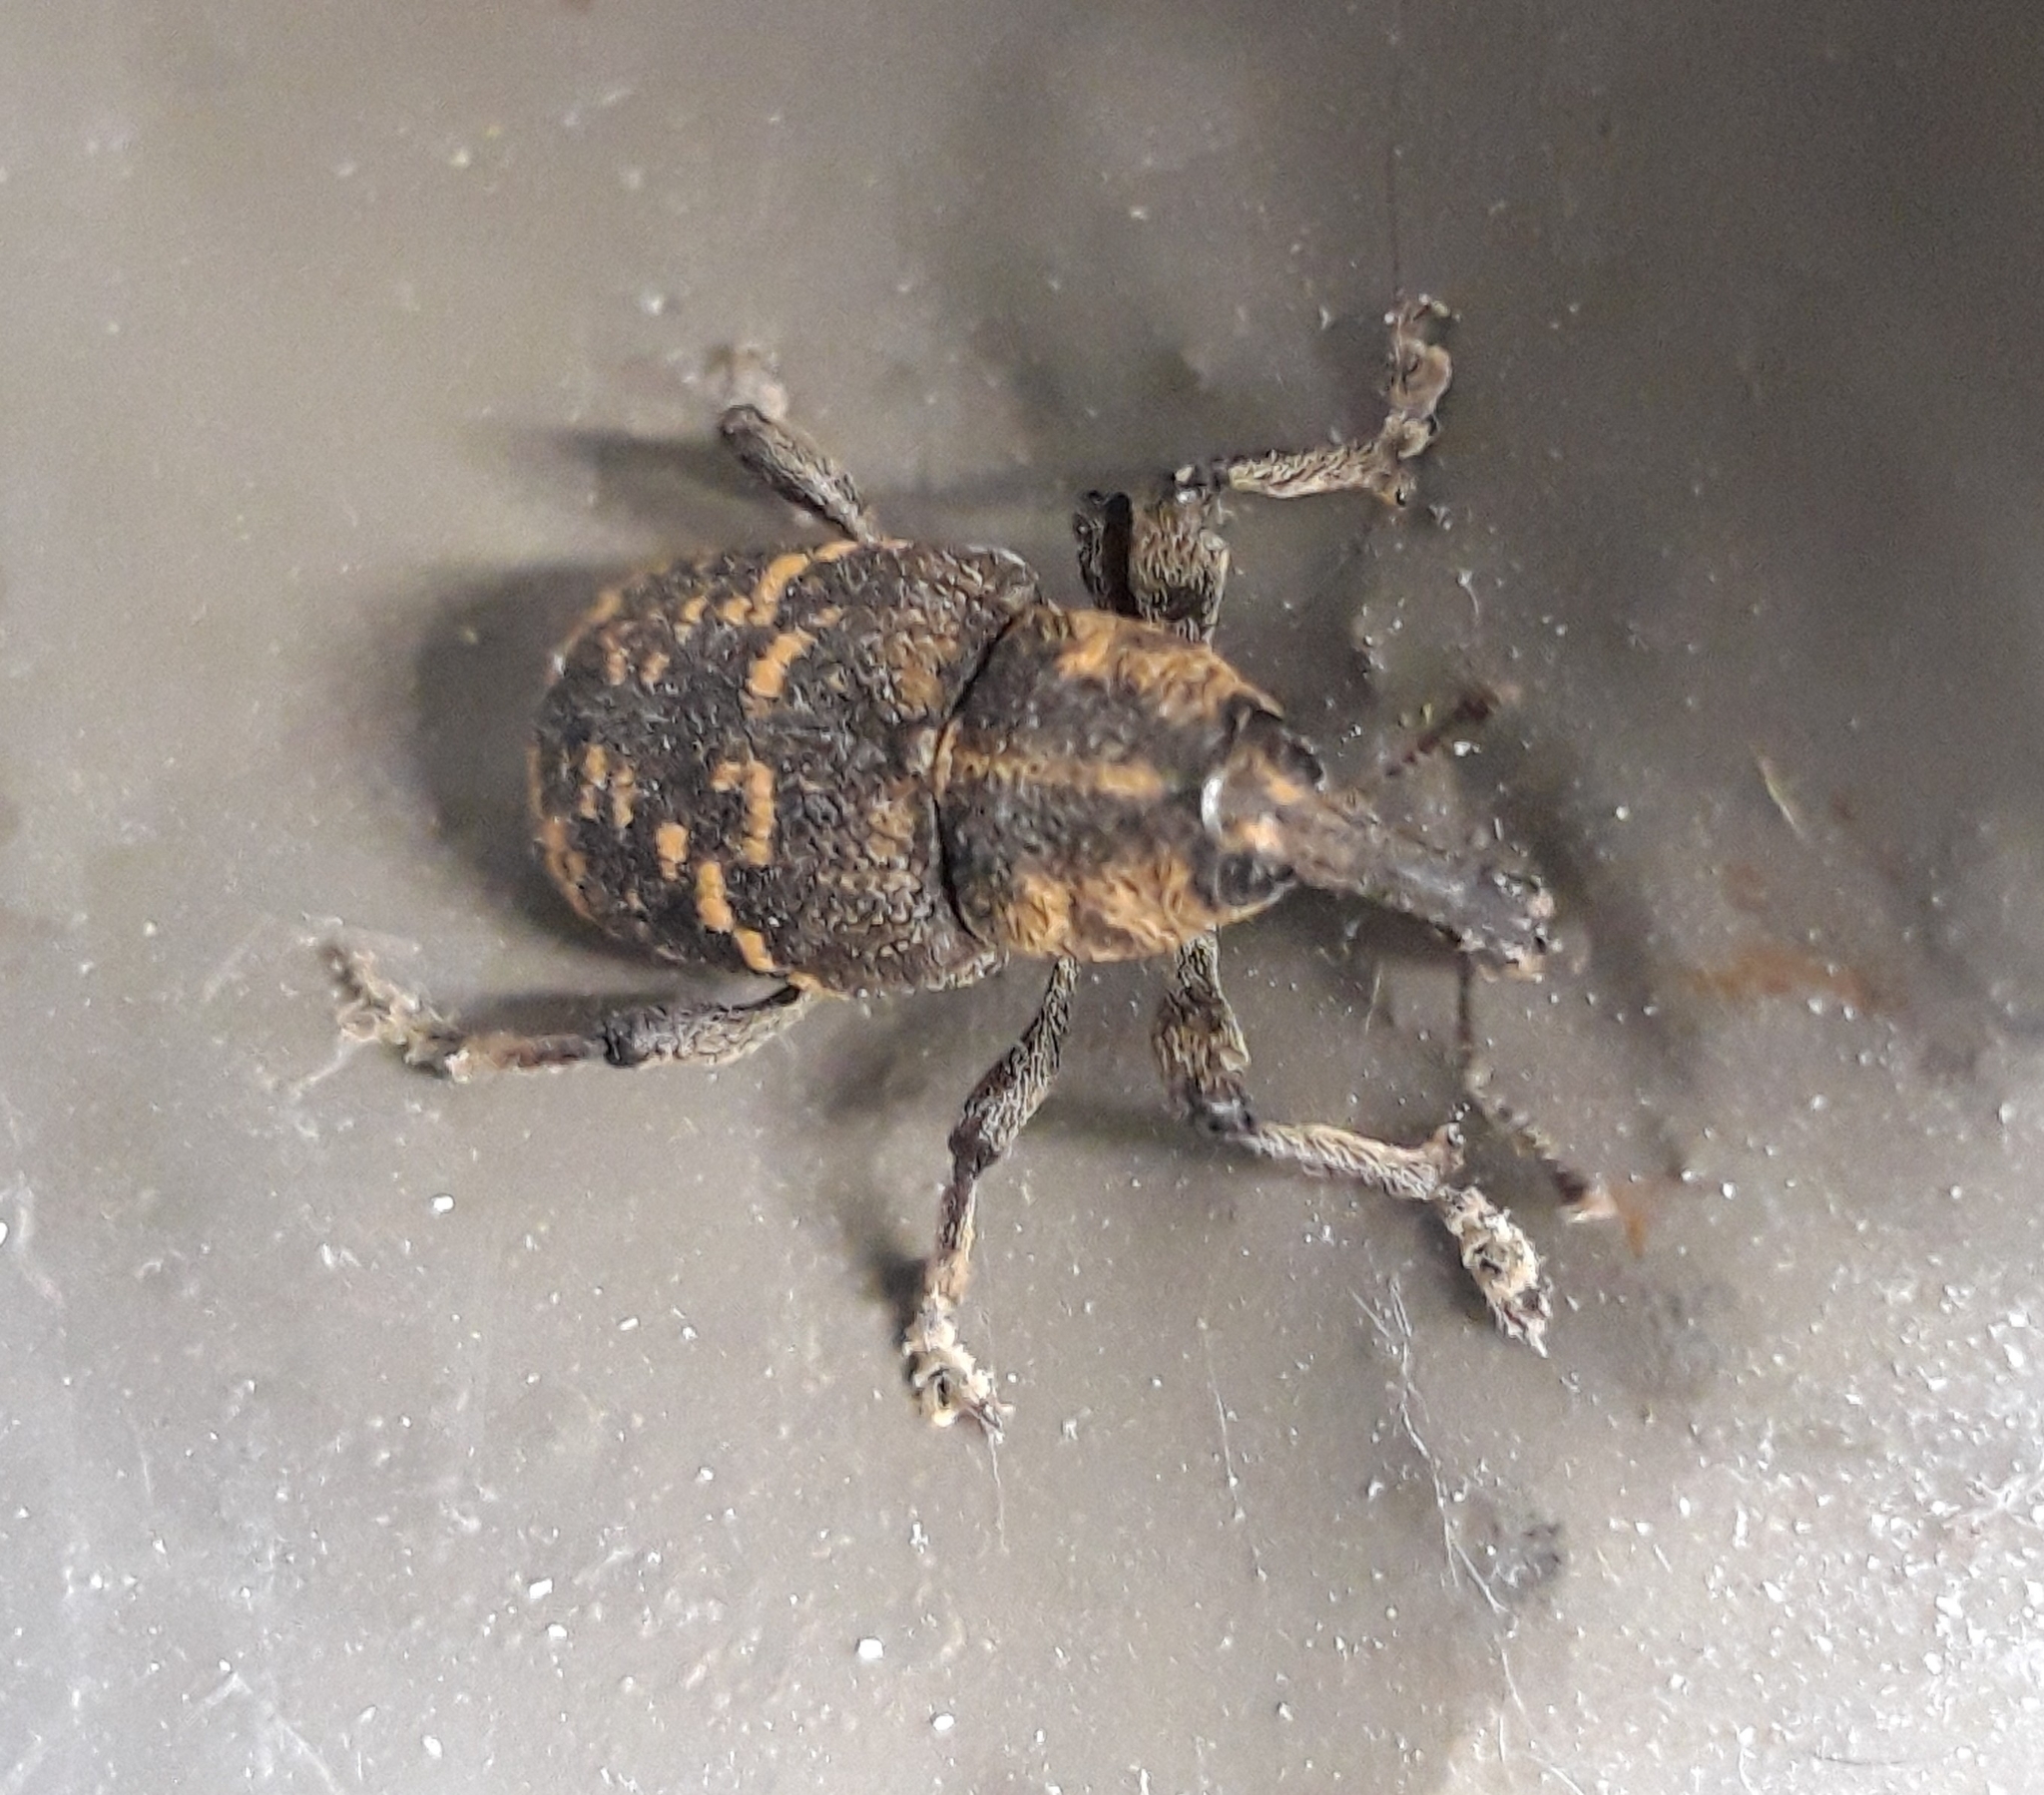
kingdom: Animalia
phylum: Arthropoda
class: Insecta
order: Coleoptera
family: Curculionidae
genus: Hylobius
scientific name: Hylobius abietis
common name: Large pine weevil
